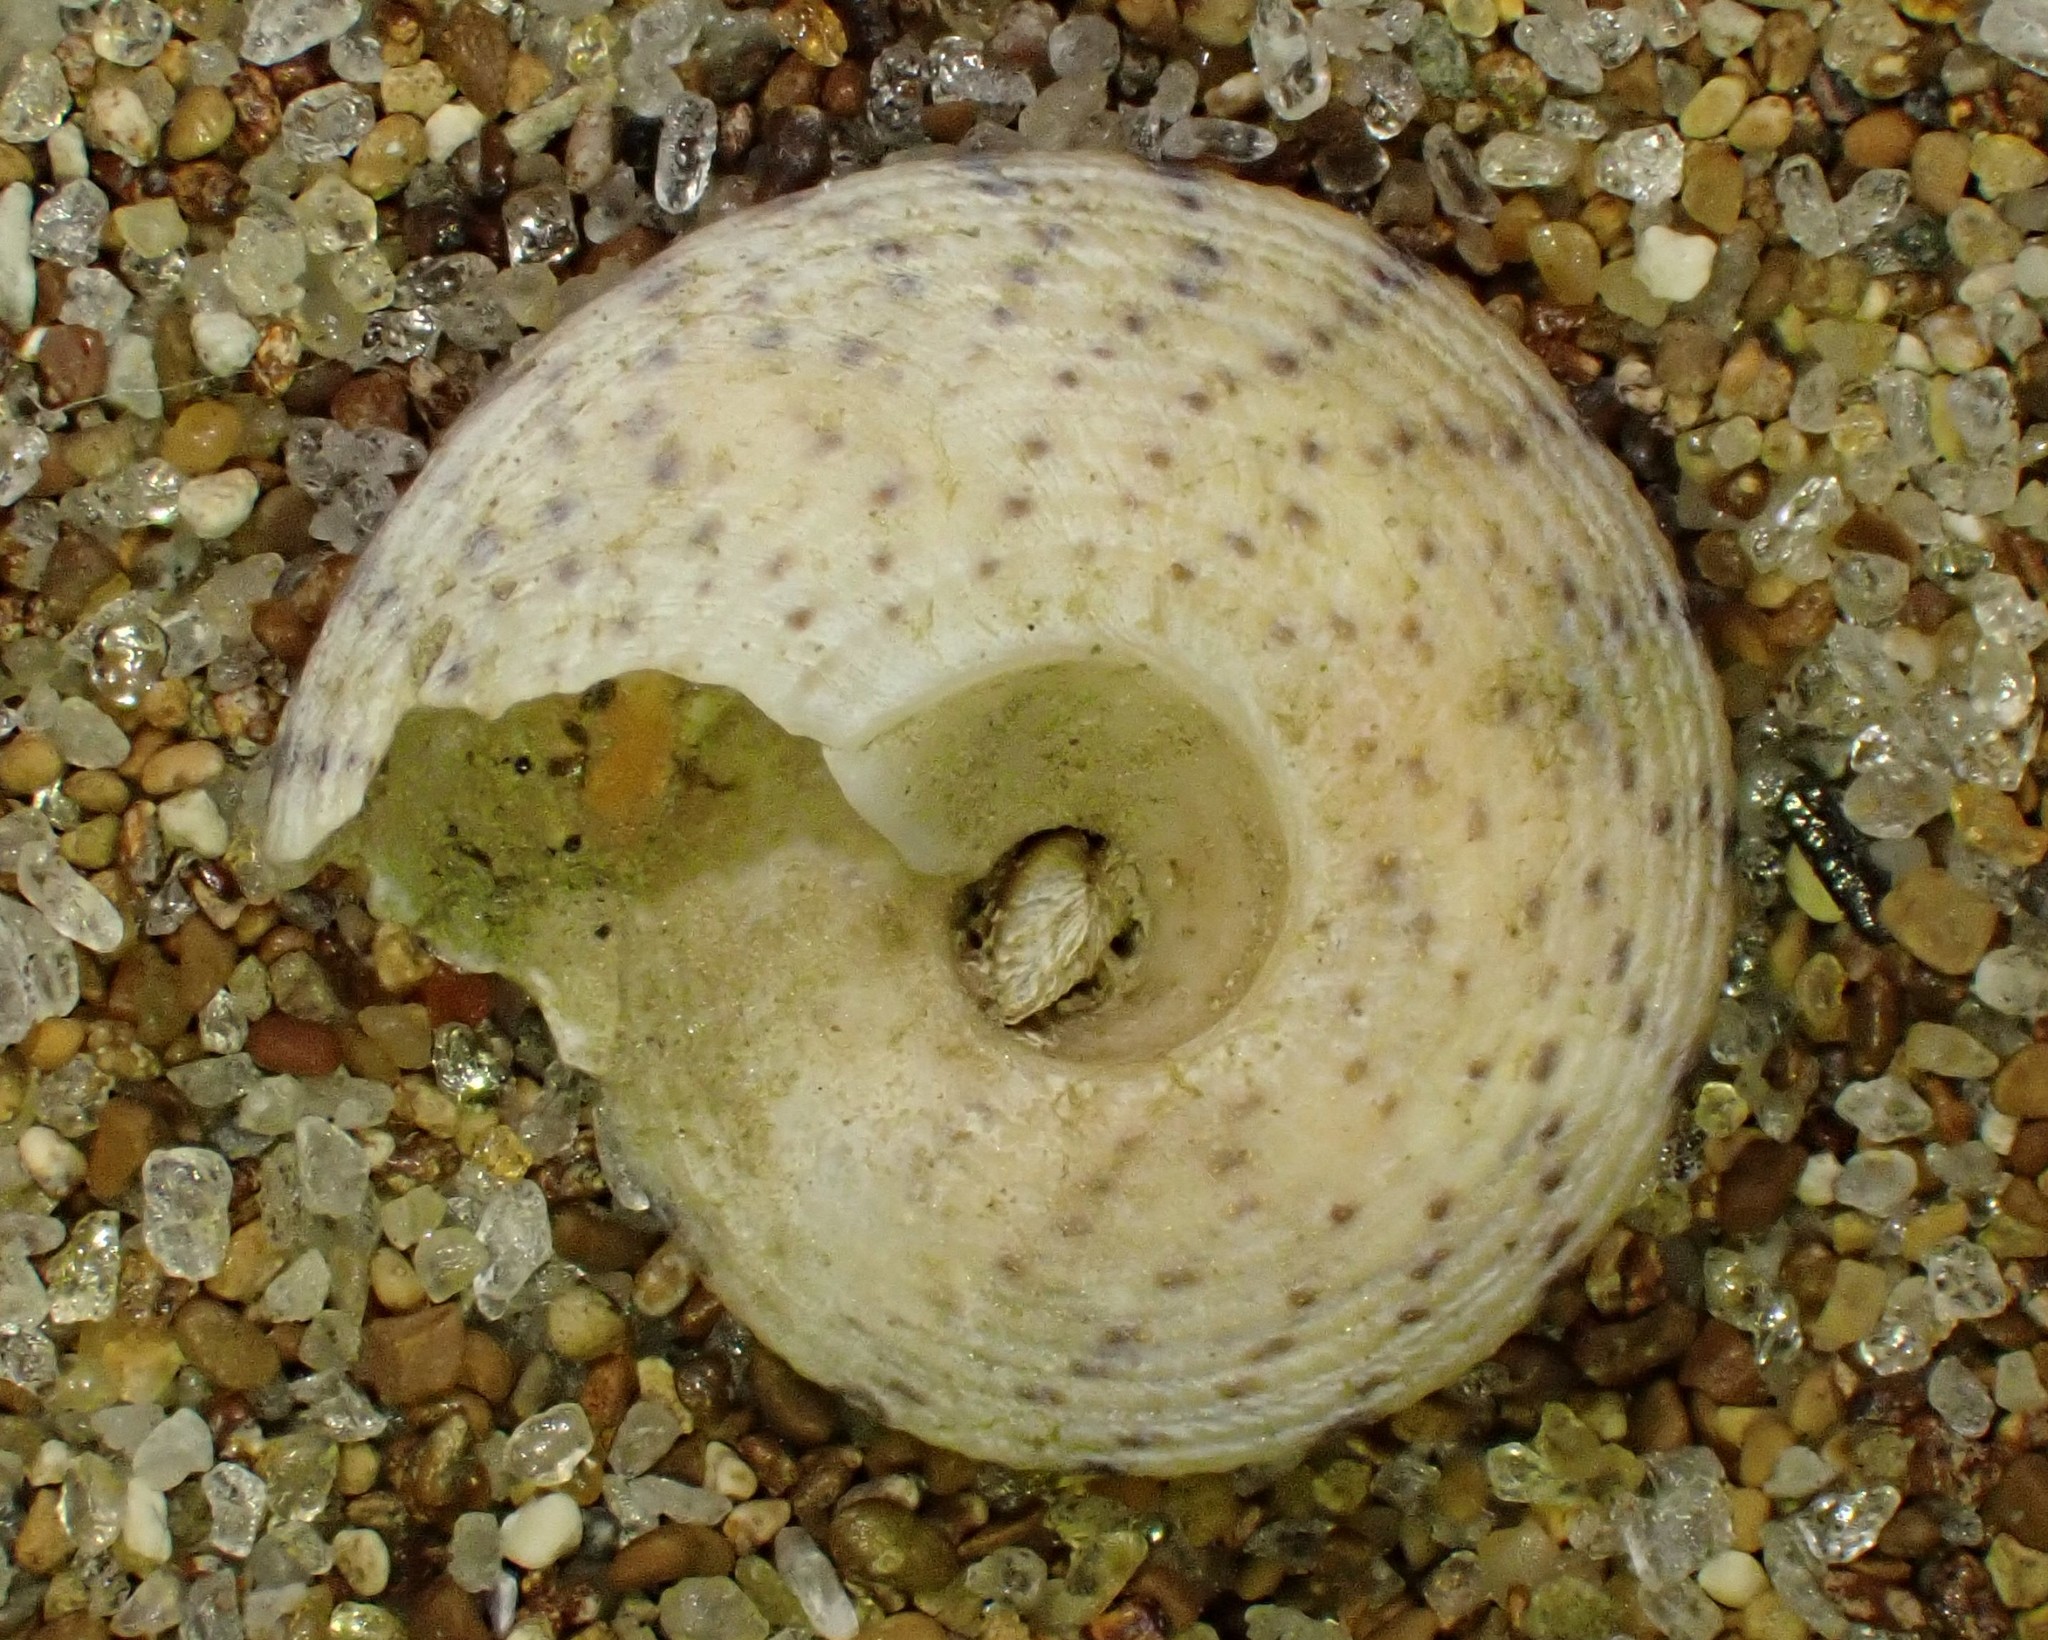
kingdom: Animalia
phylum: Mollusca
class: Gastropoda
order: Trochida
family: Trochidae
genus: Coelotrochus
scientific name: Coelotrochus tiaratus
